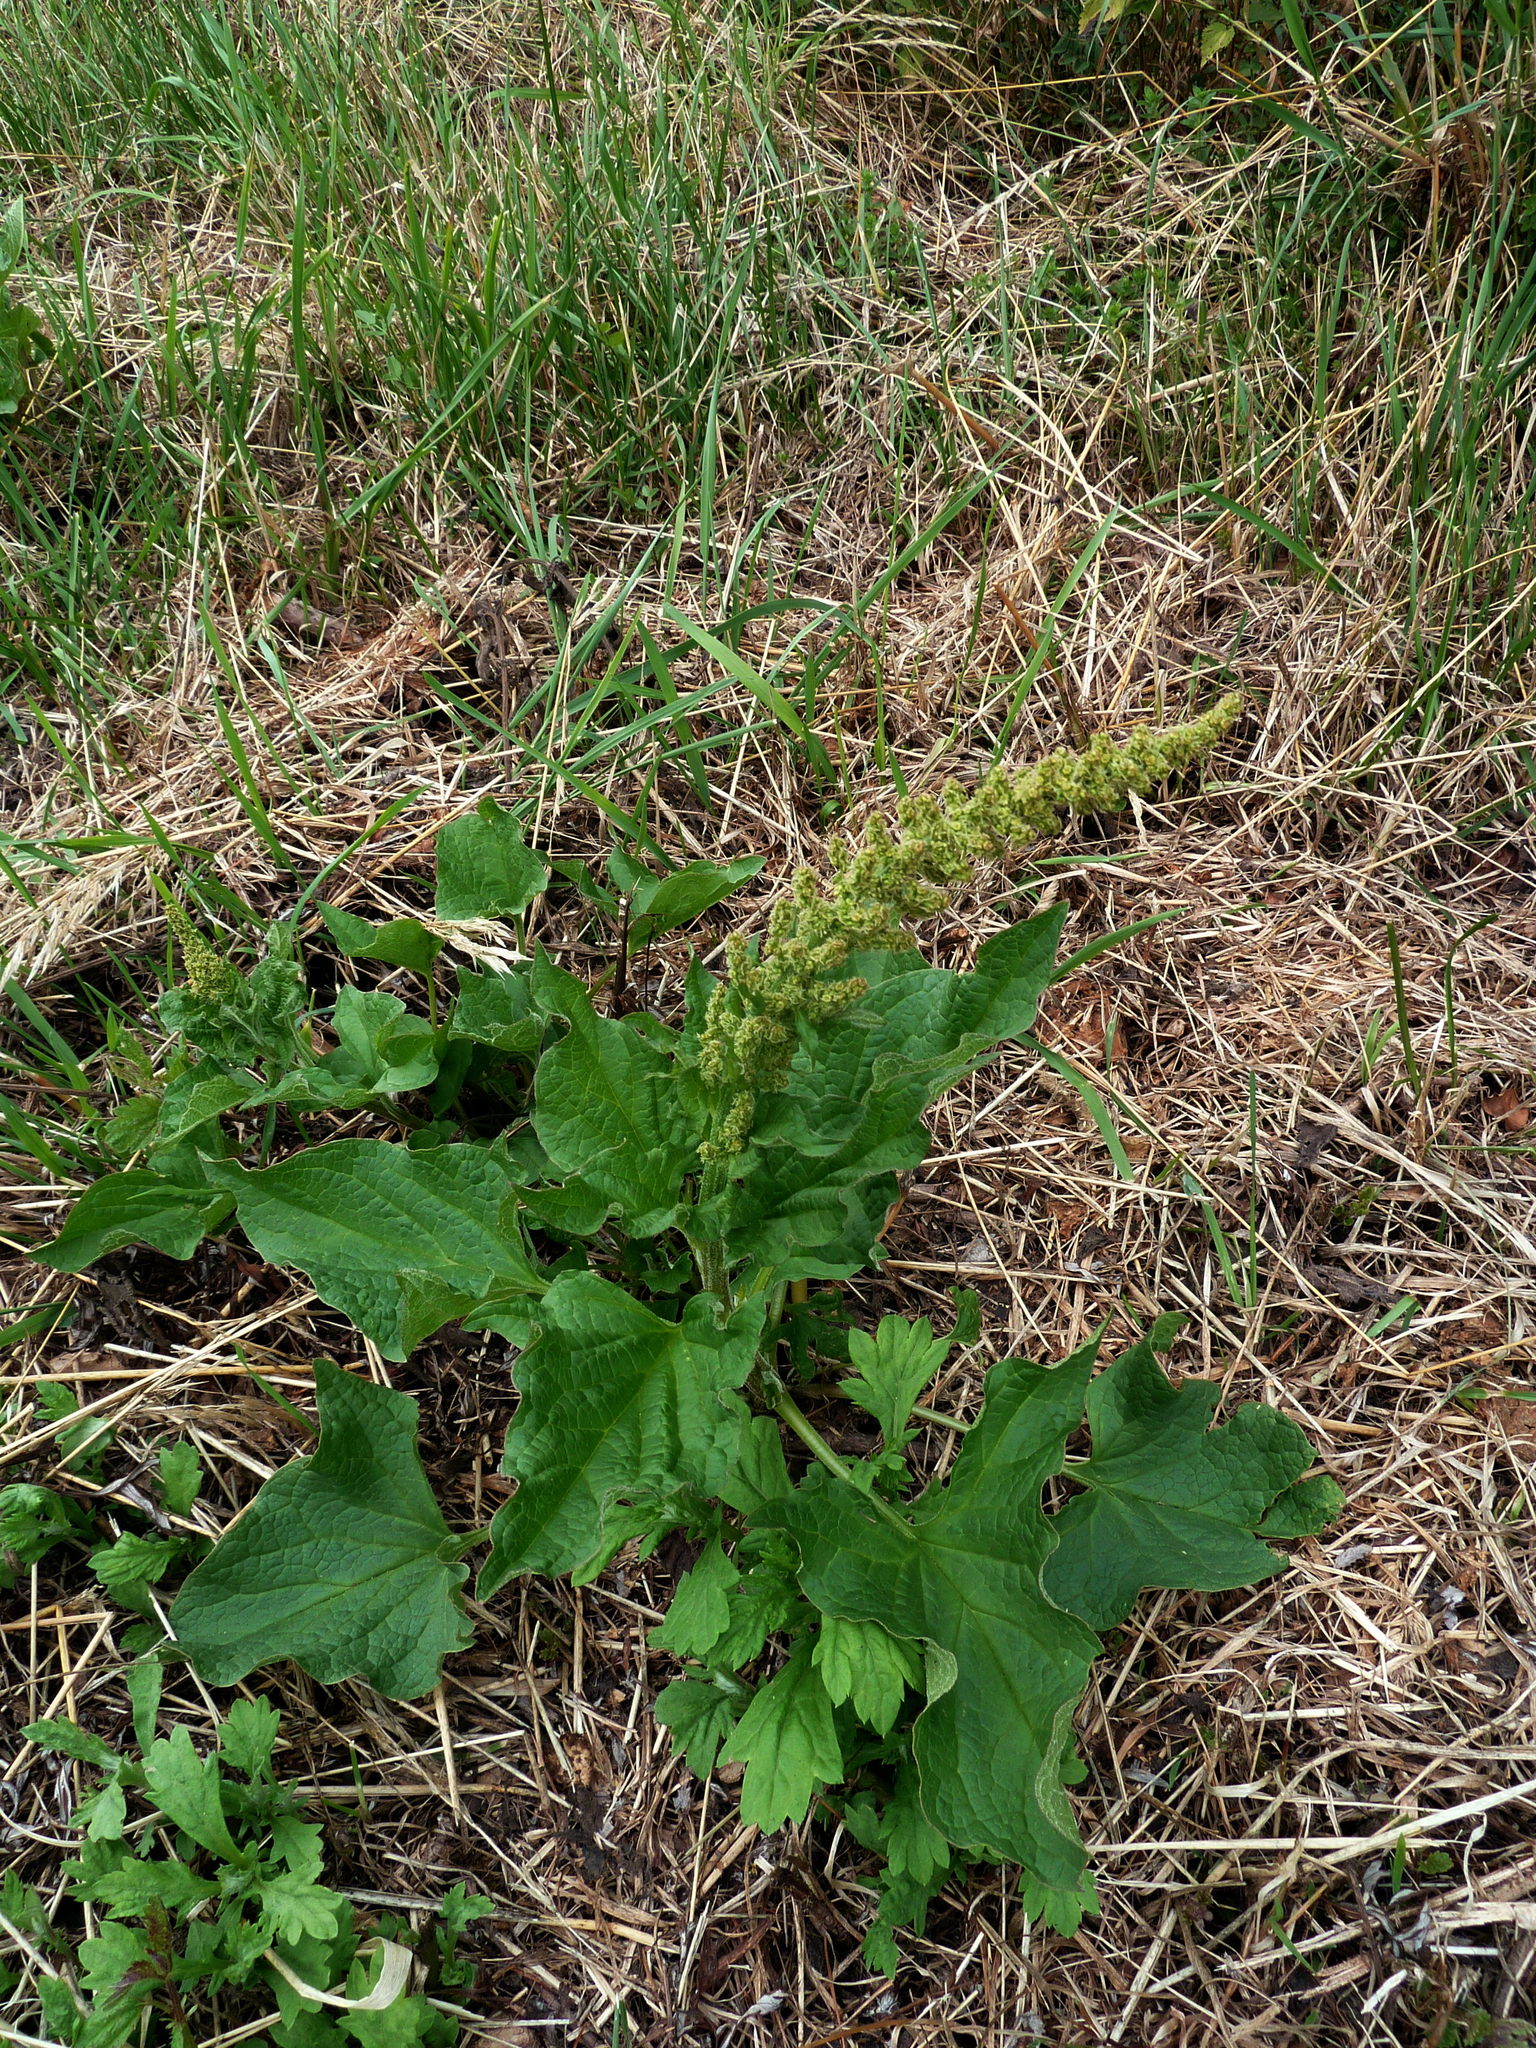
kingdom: Plantae
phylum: Tracheophyta
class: Magnoliopsida
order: Caryophyllales
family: Amaranthaceae
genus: Blitum
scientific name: Blitum bonus-henricus
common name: Good king henry
